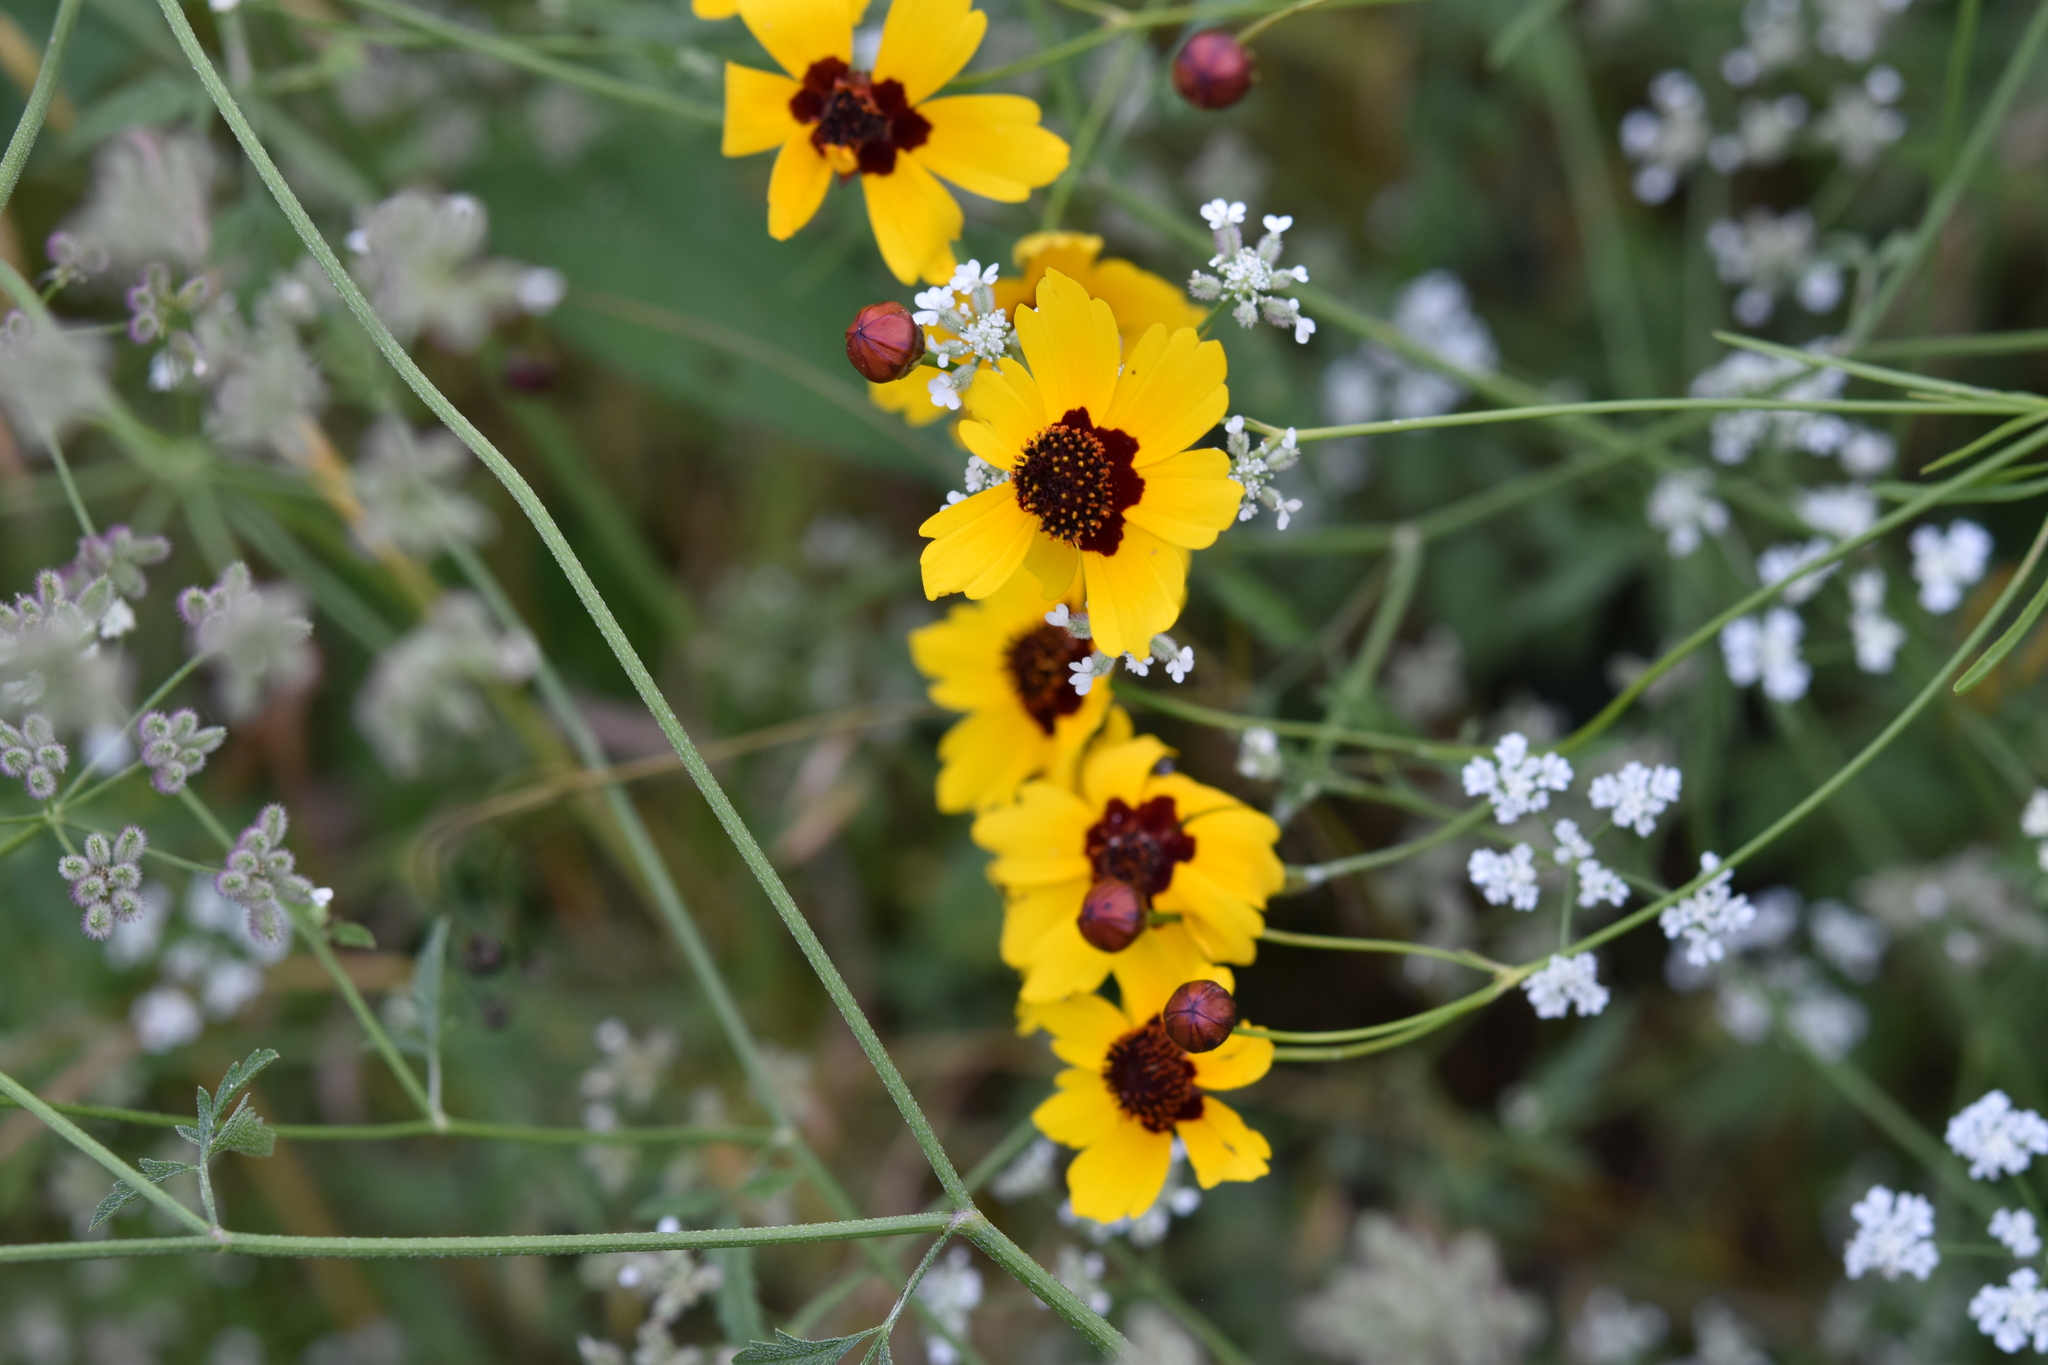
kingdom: Plantae
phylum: Tracheophyta
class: Magnoliopsida
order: Asterales
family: Asteraceae
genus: Coreopsis
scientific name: Coreopsis tinctoria
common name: Garden tickseed
